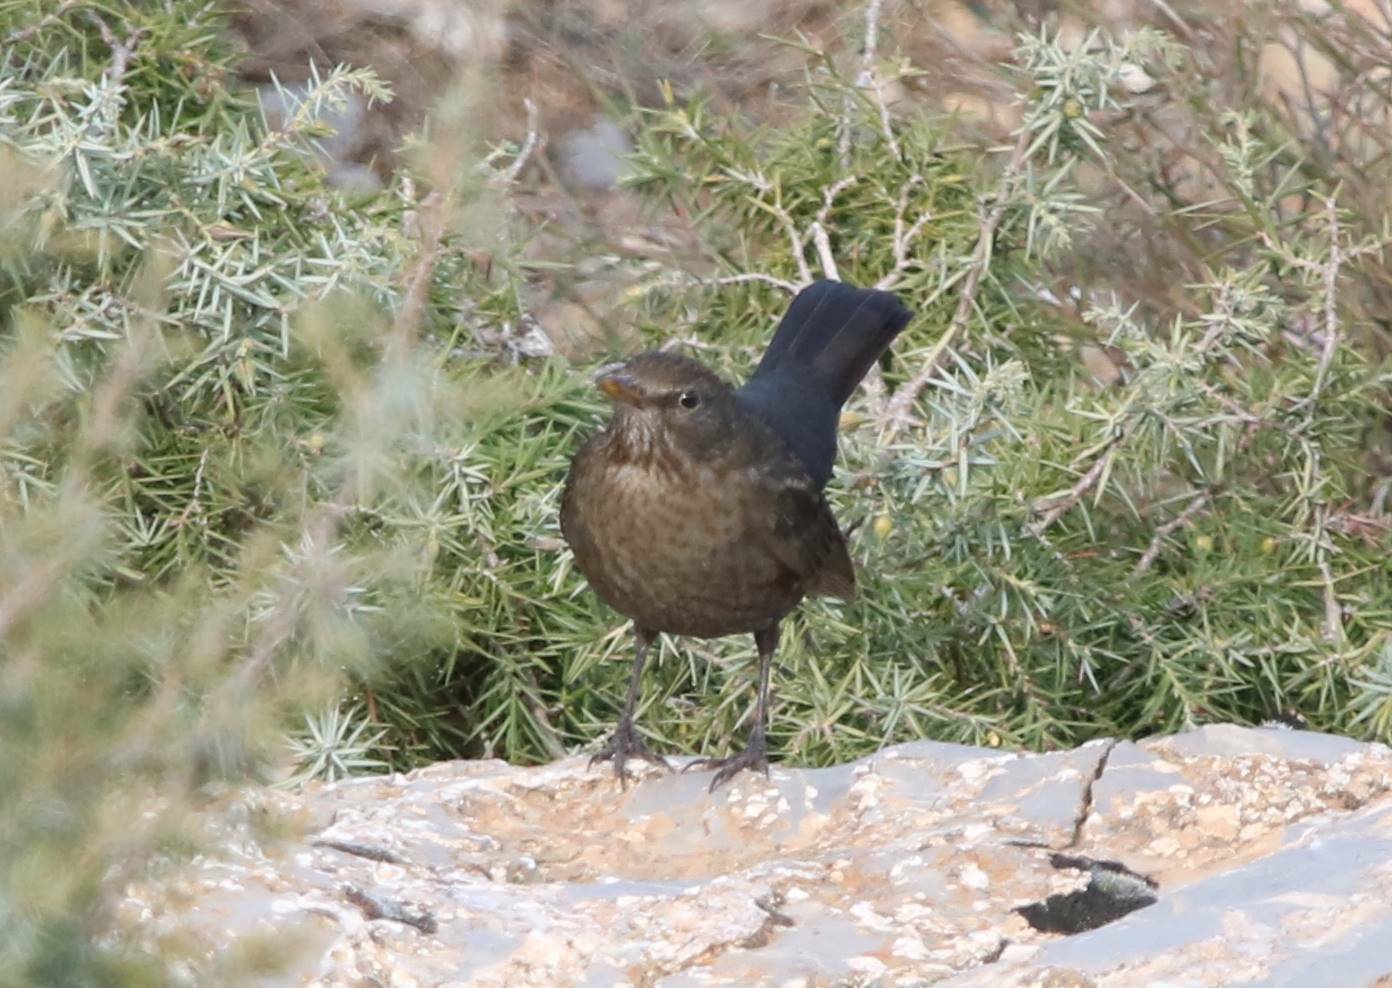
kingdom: Animalia
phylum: Chordata
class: Aves
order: Passeriformes
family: Turdidae
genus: Turdus
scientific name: Turdus merula
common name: Common blackbird
